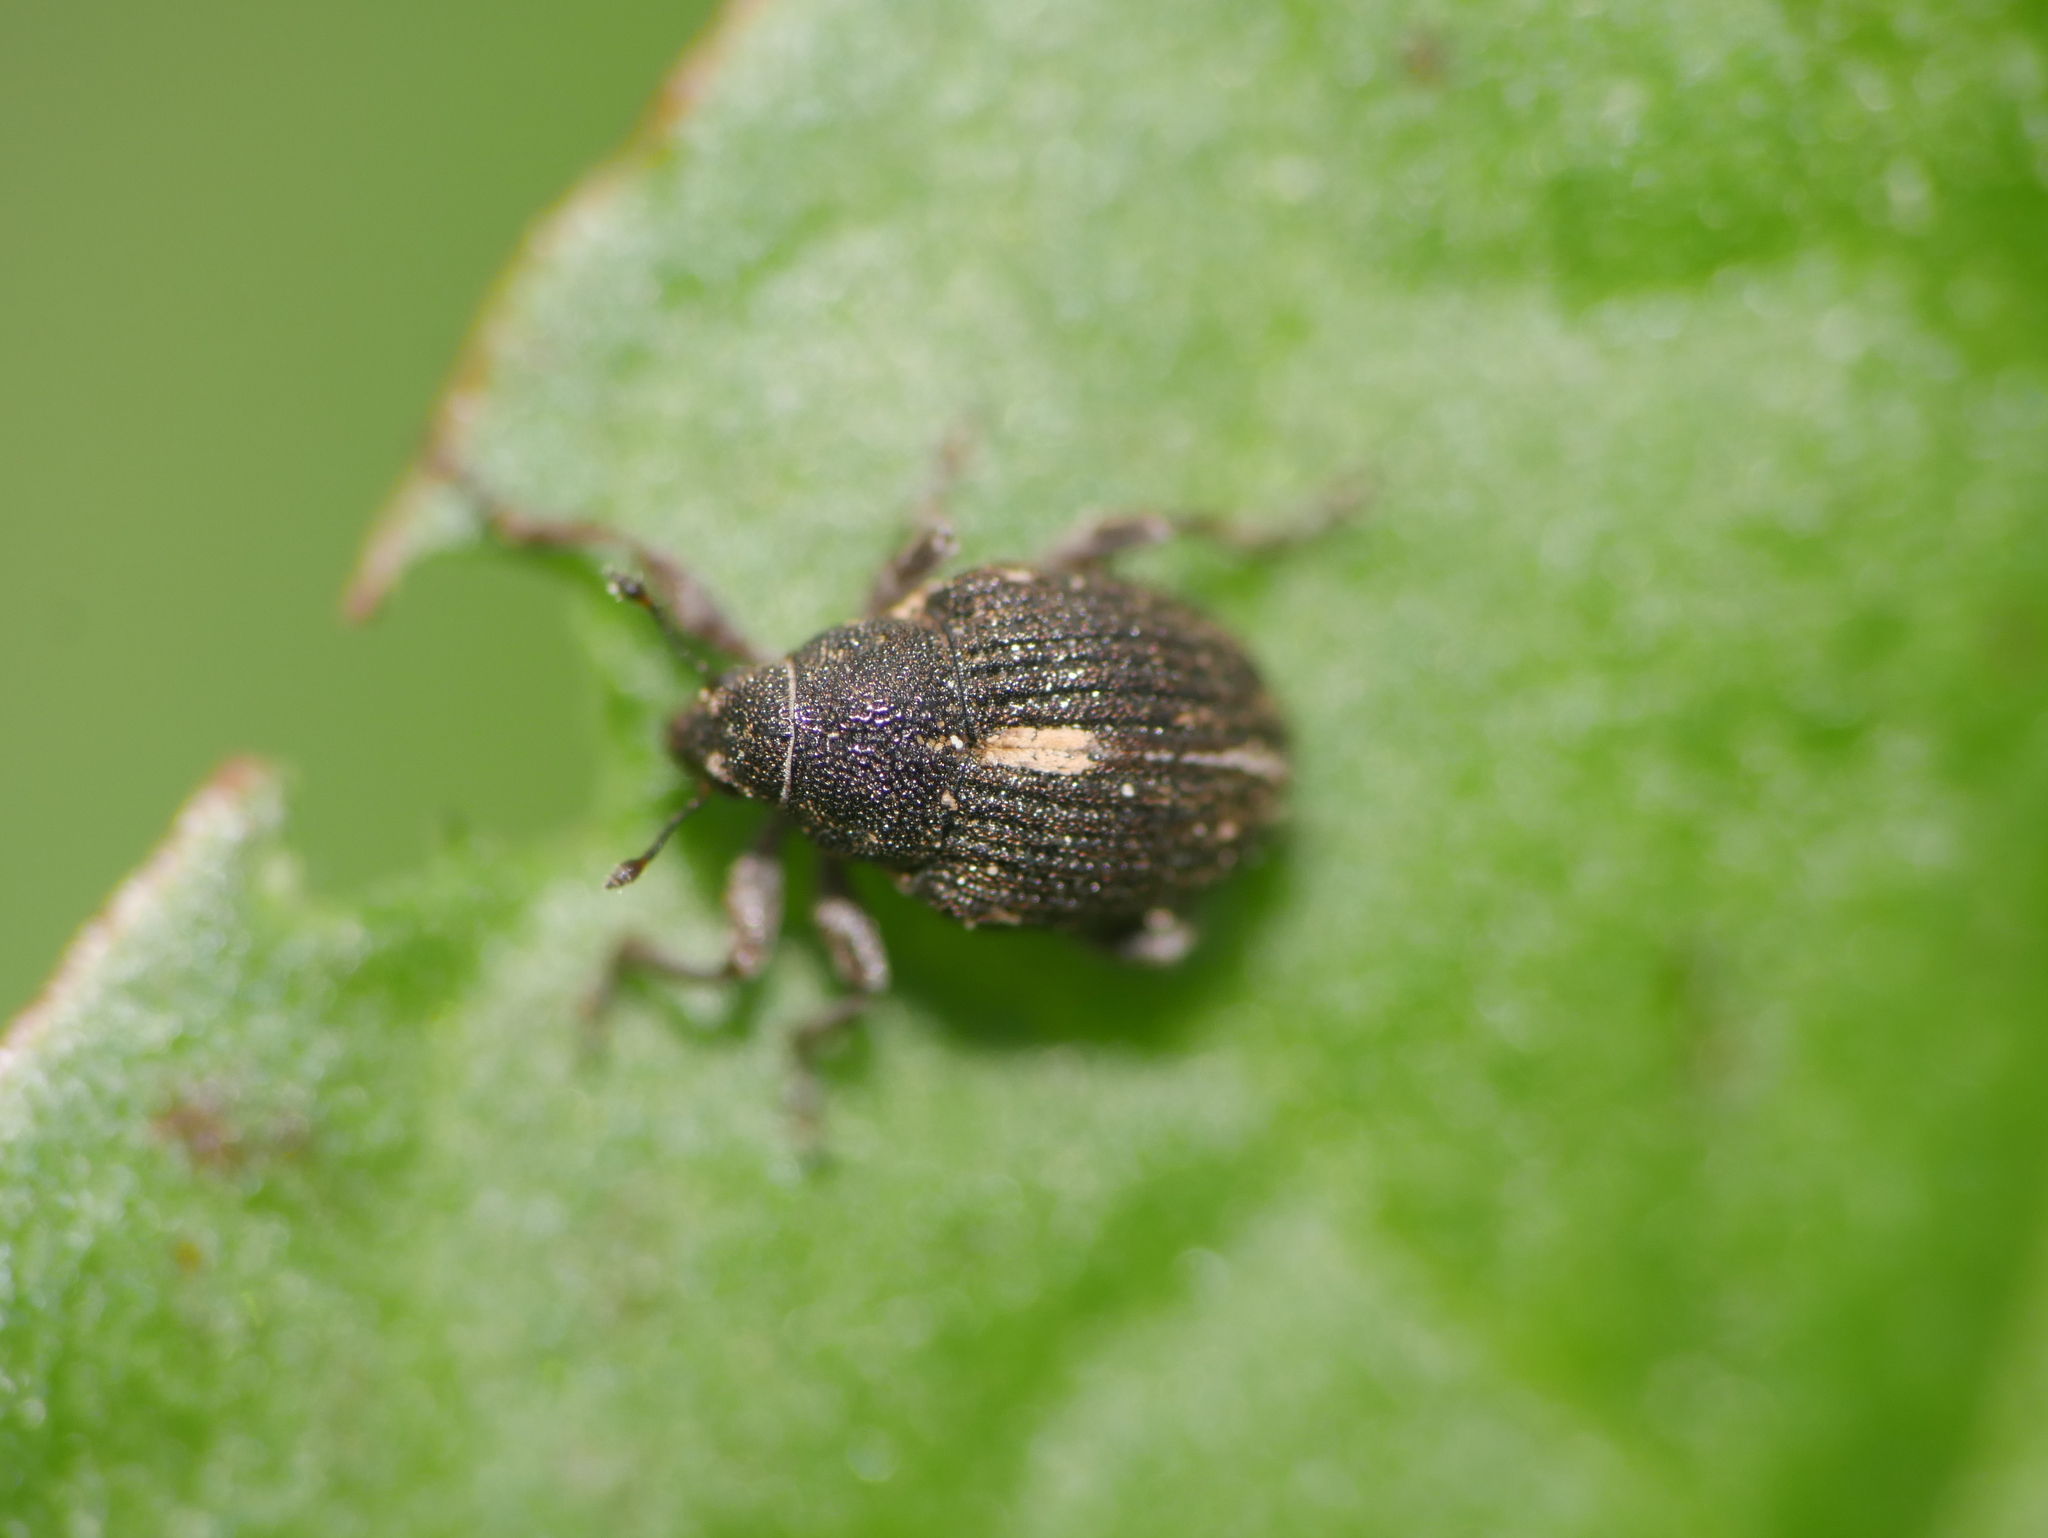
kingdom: Animalia
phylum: Arthropoda
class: Insecta
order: Coleoptera
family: Curculionidae
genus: Rhinoncus
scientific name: Rhinoncus leucostigma
